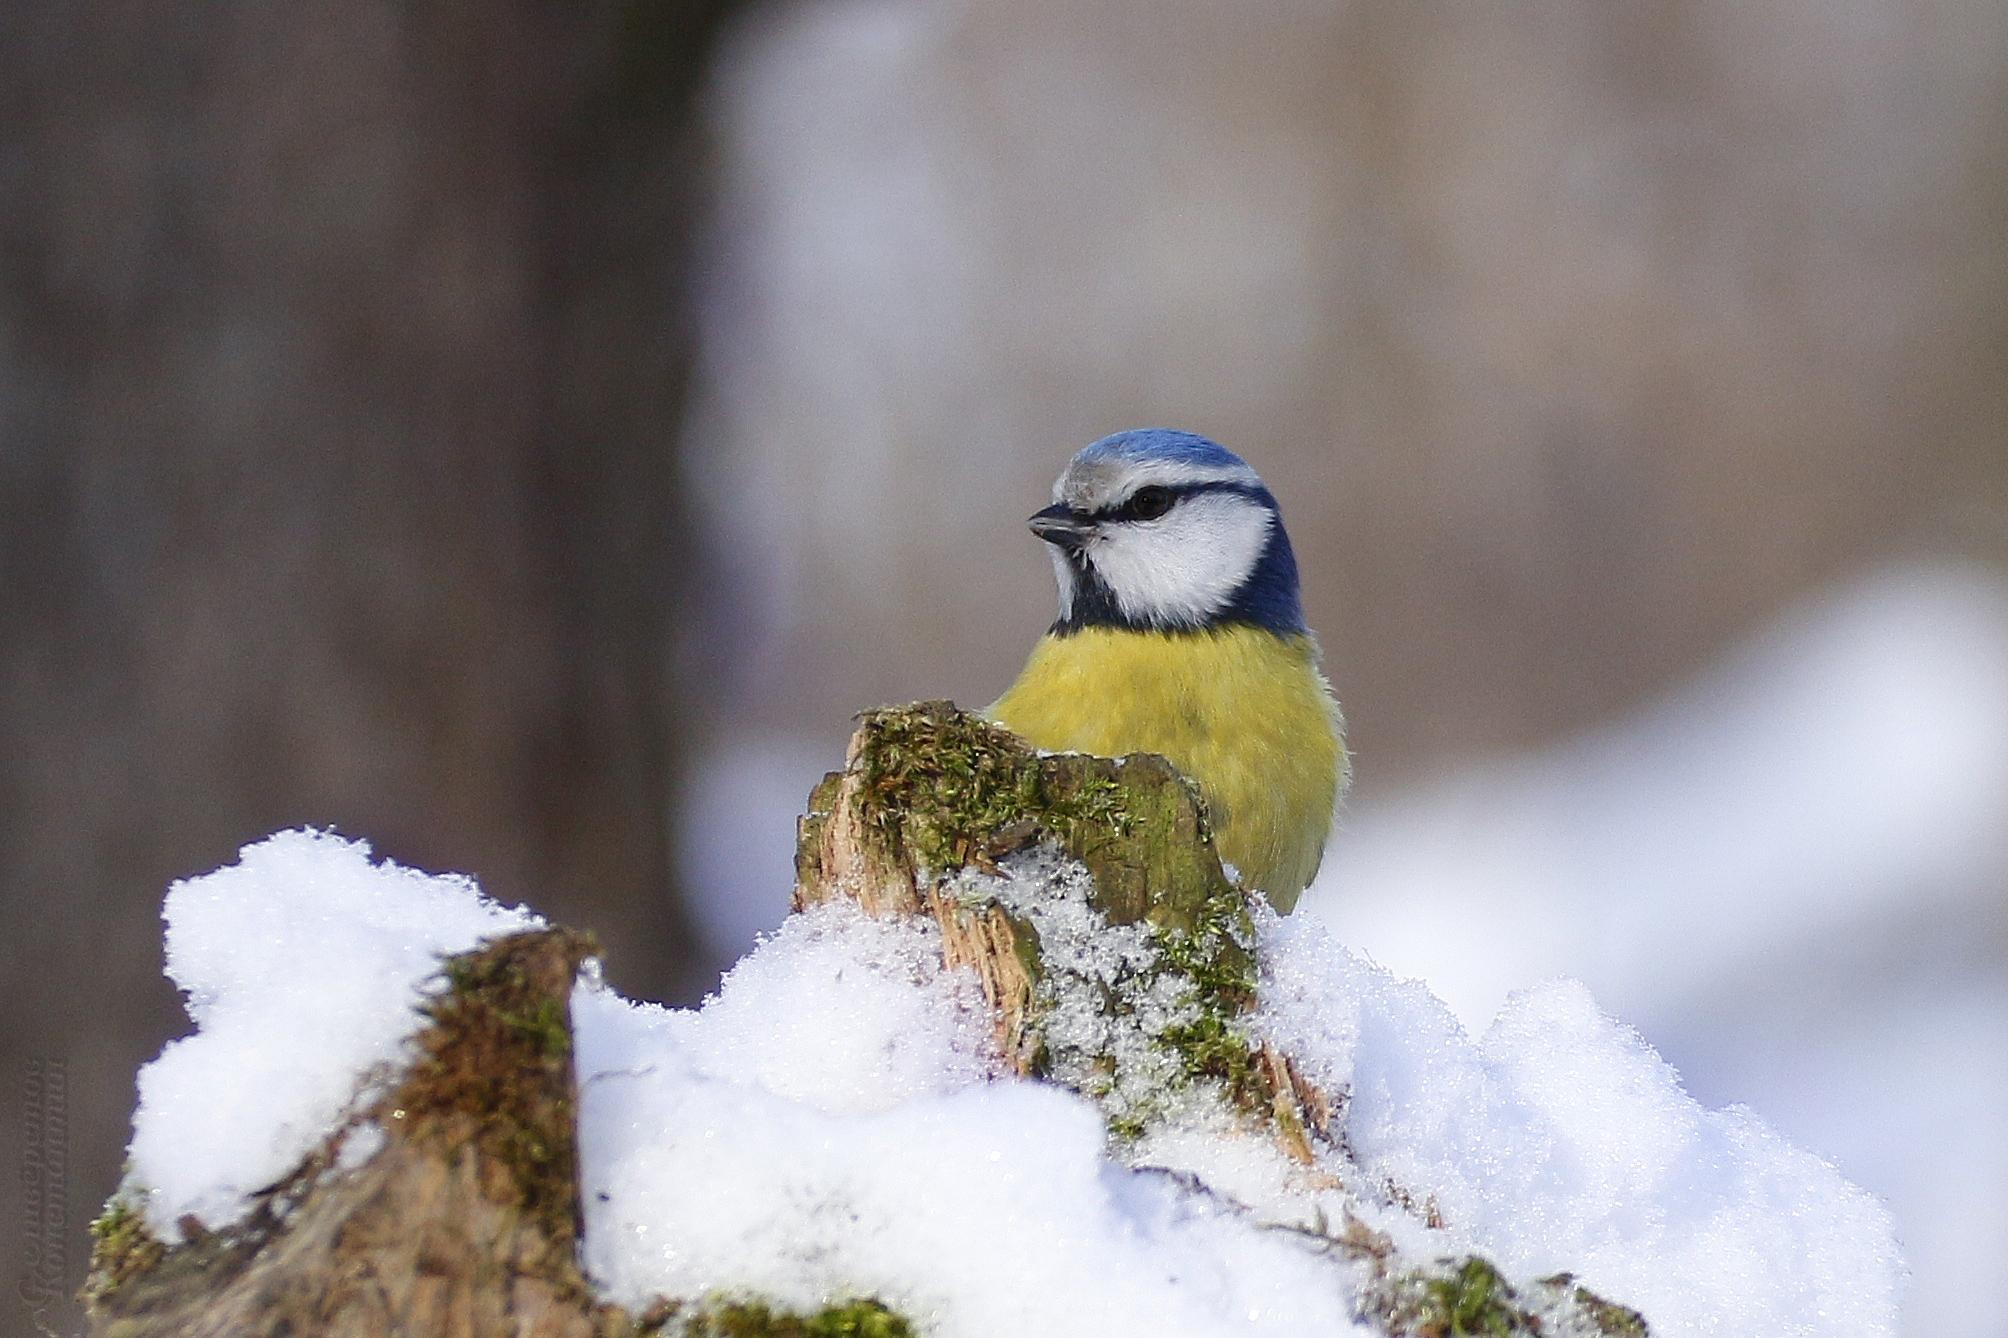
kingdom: Animalia
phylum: Chordata
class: Aves
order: Passeriformes
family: Paridae
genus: Cyanistes
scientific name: Cyanistes caeruleus
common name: Eurasian blue tit
